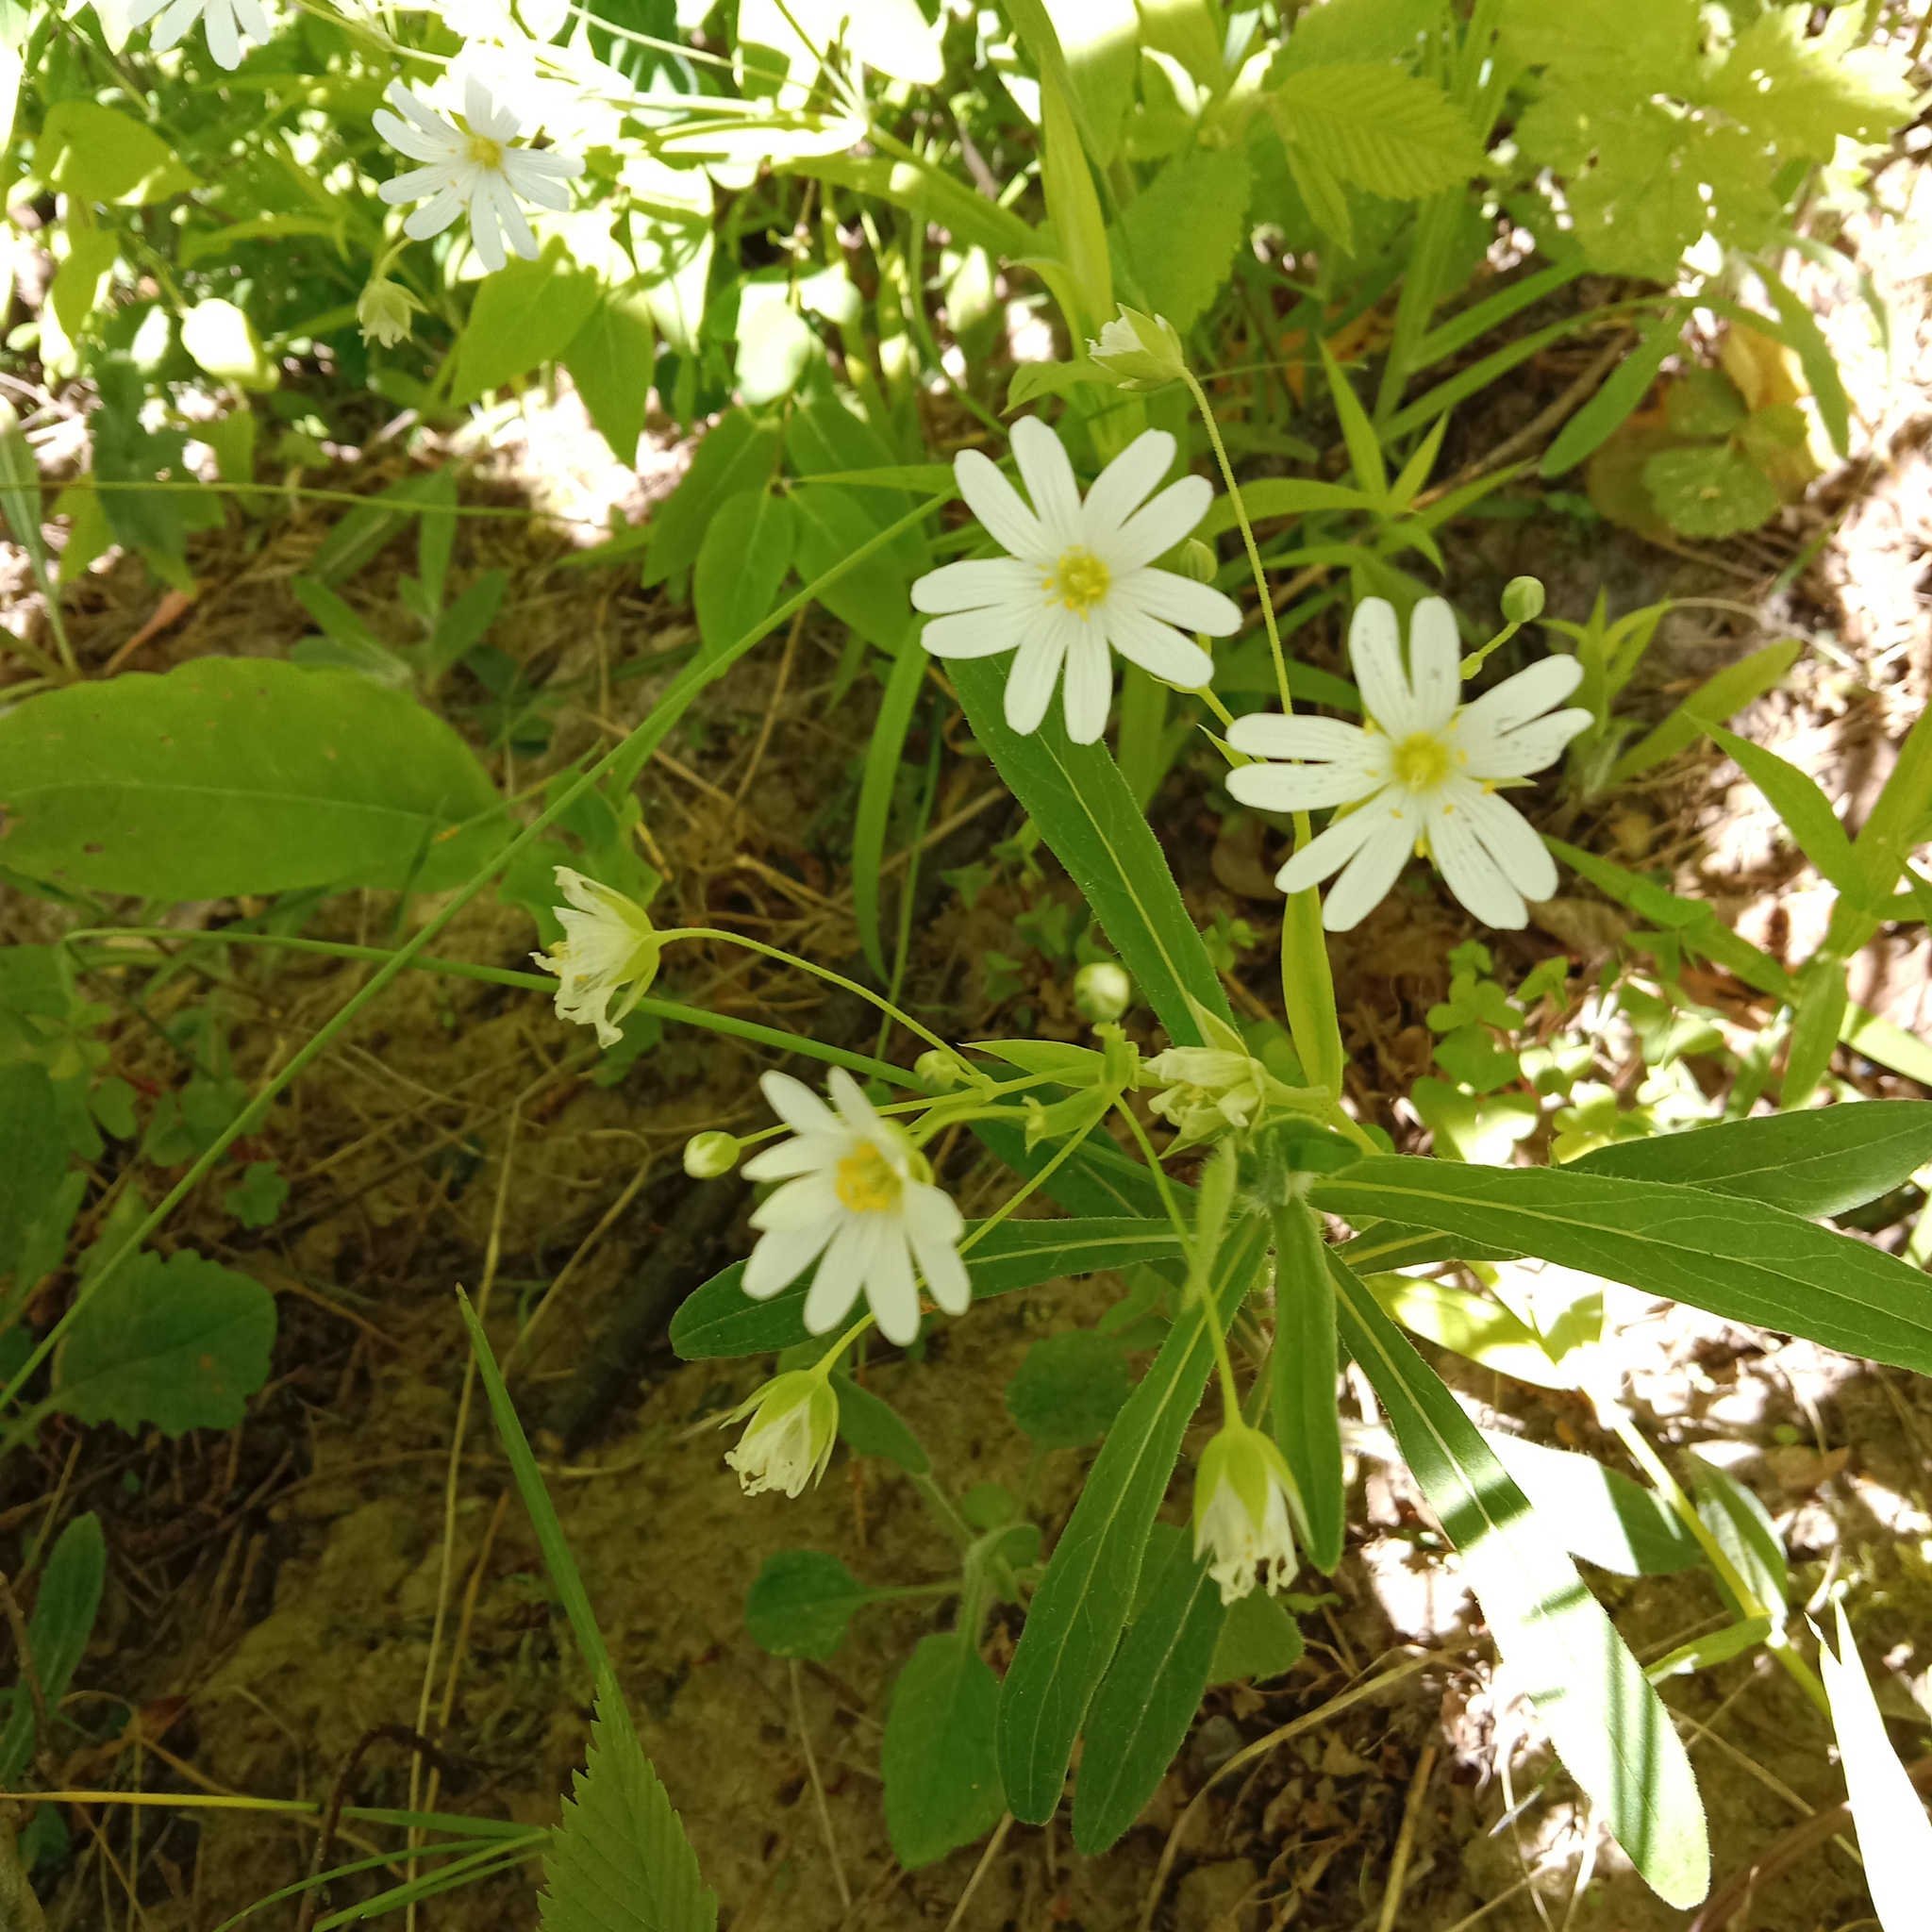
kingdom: Plantae
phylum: Tracheophyta
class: Magnoliopsida
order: Caryophyllales
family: Caryophyllaceae
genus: Rabelera
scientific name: Rabelera holostea
